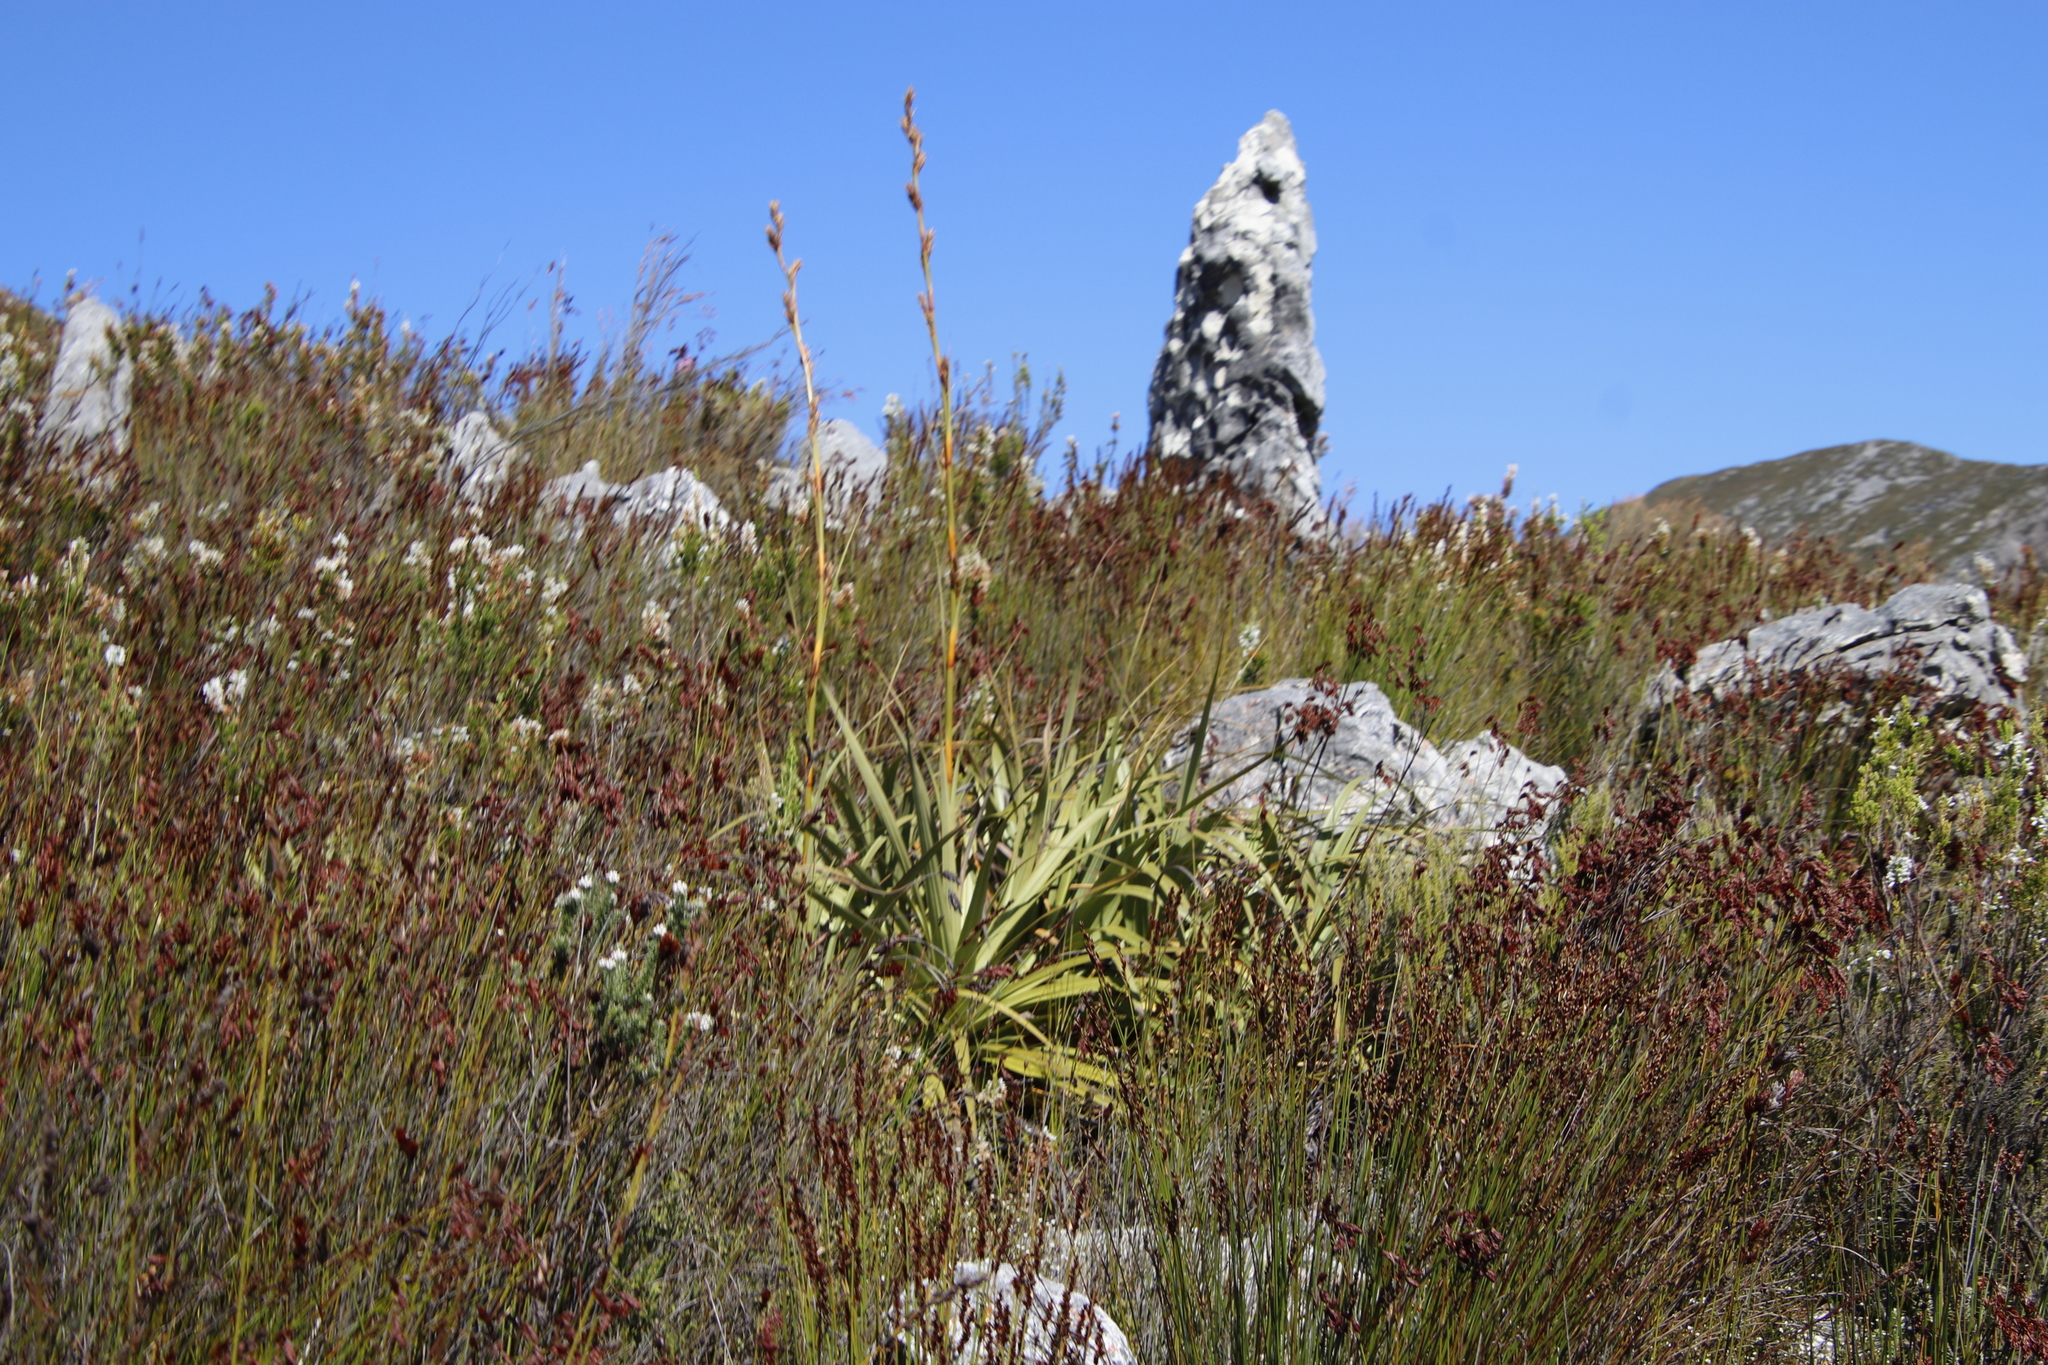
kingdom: Plantae
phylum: Tracheophyta
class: Liliopsida
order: Poales
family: Cyperaceae
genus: Tetraria
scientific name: Tetraria thermalis
